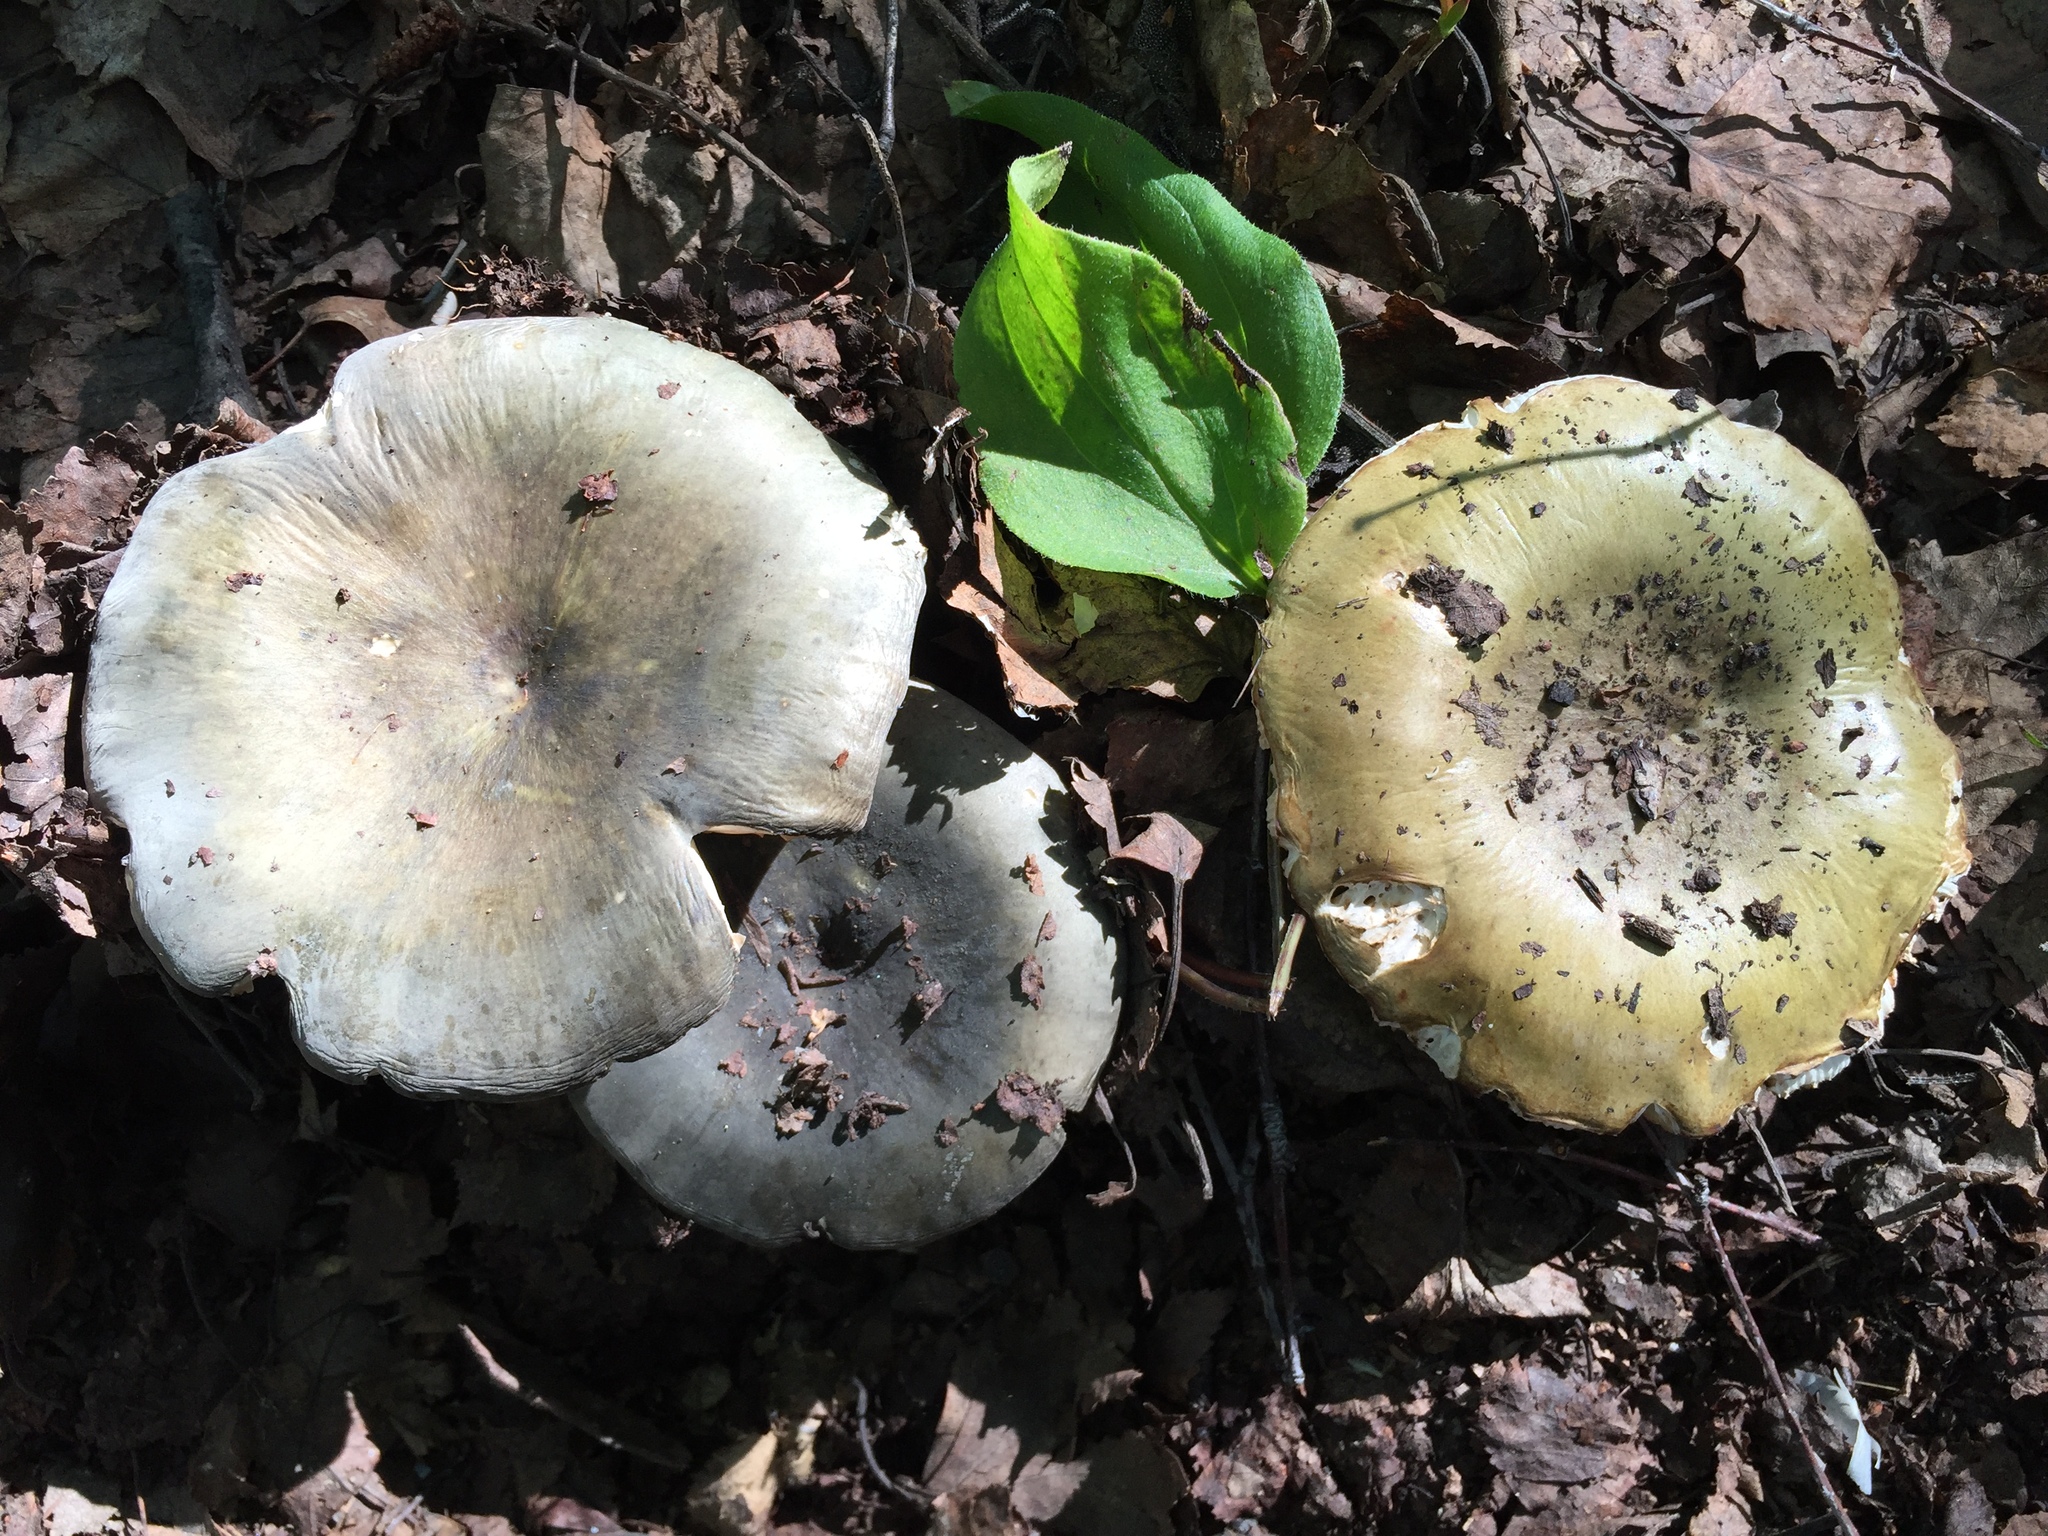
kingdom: Fungi
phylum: Basidiomycota
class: Agaricomycetes
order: Russulales
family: Russulaceae
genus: Russula
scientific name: Russula heterophylla
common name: Greasy green brittlegill
